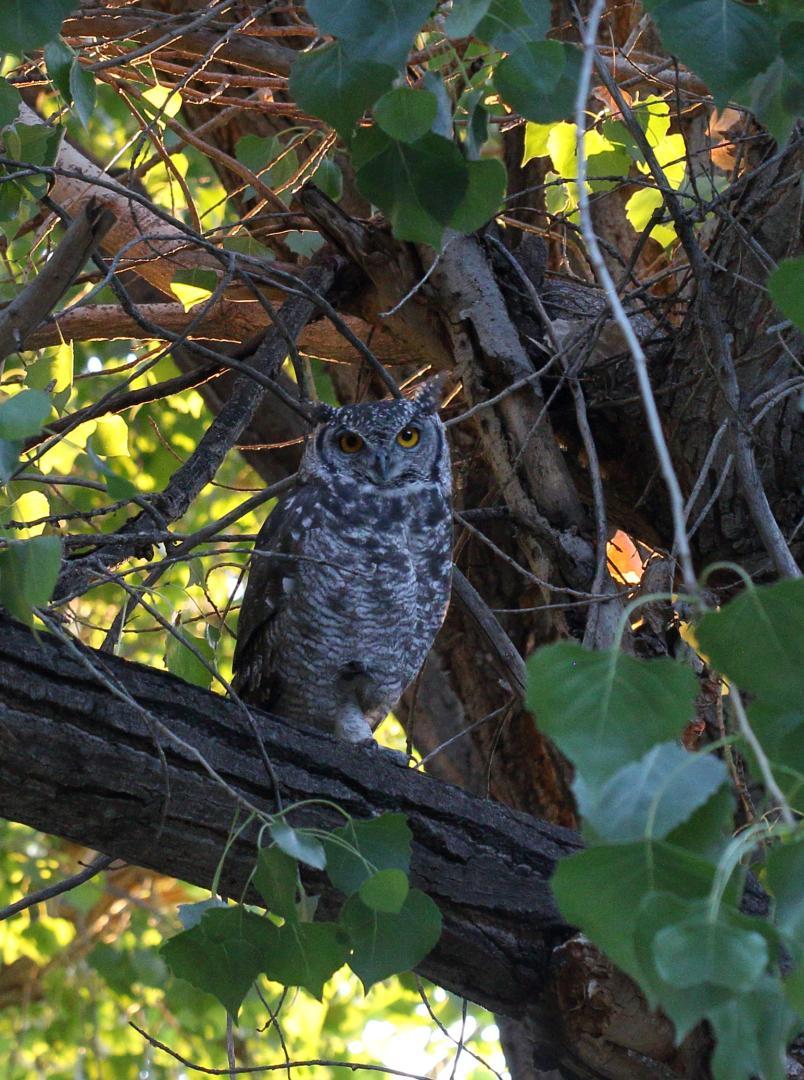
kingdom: Animalia
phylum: Chordata
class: Aves
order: Strigiformes
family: Strigidae
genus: Bubo
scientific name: Bubo africanus
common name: Spotted eagle-owl
